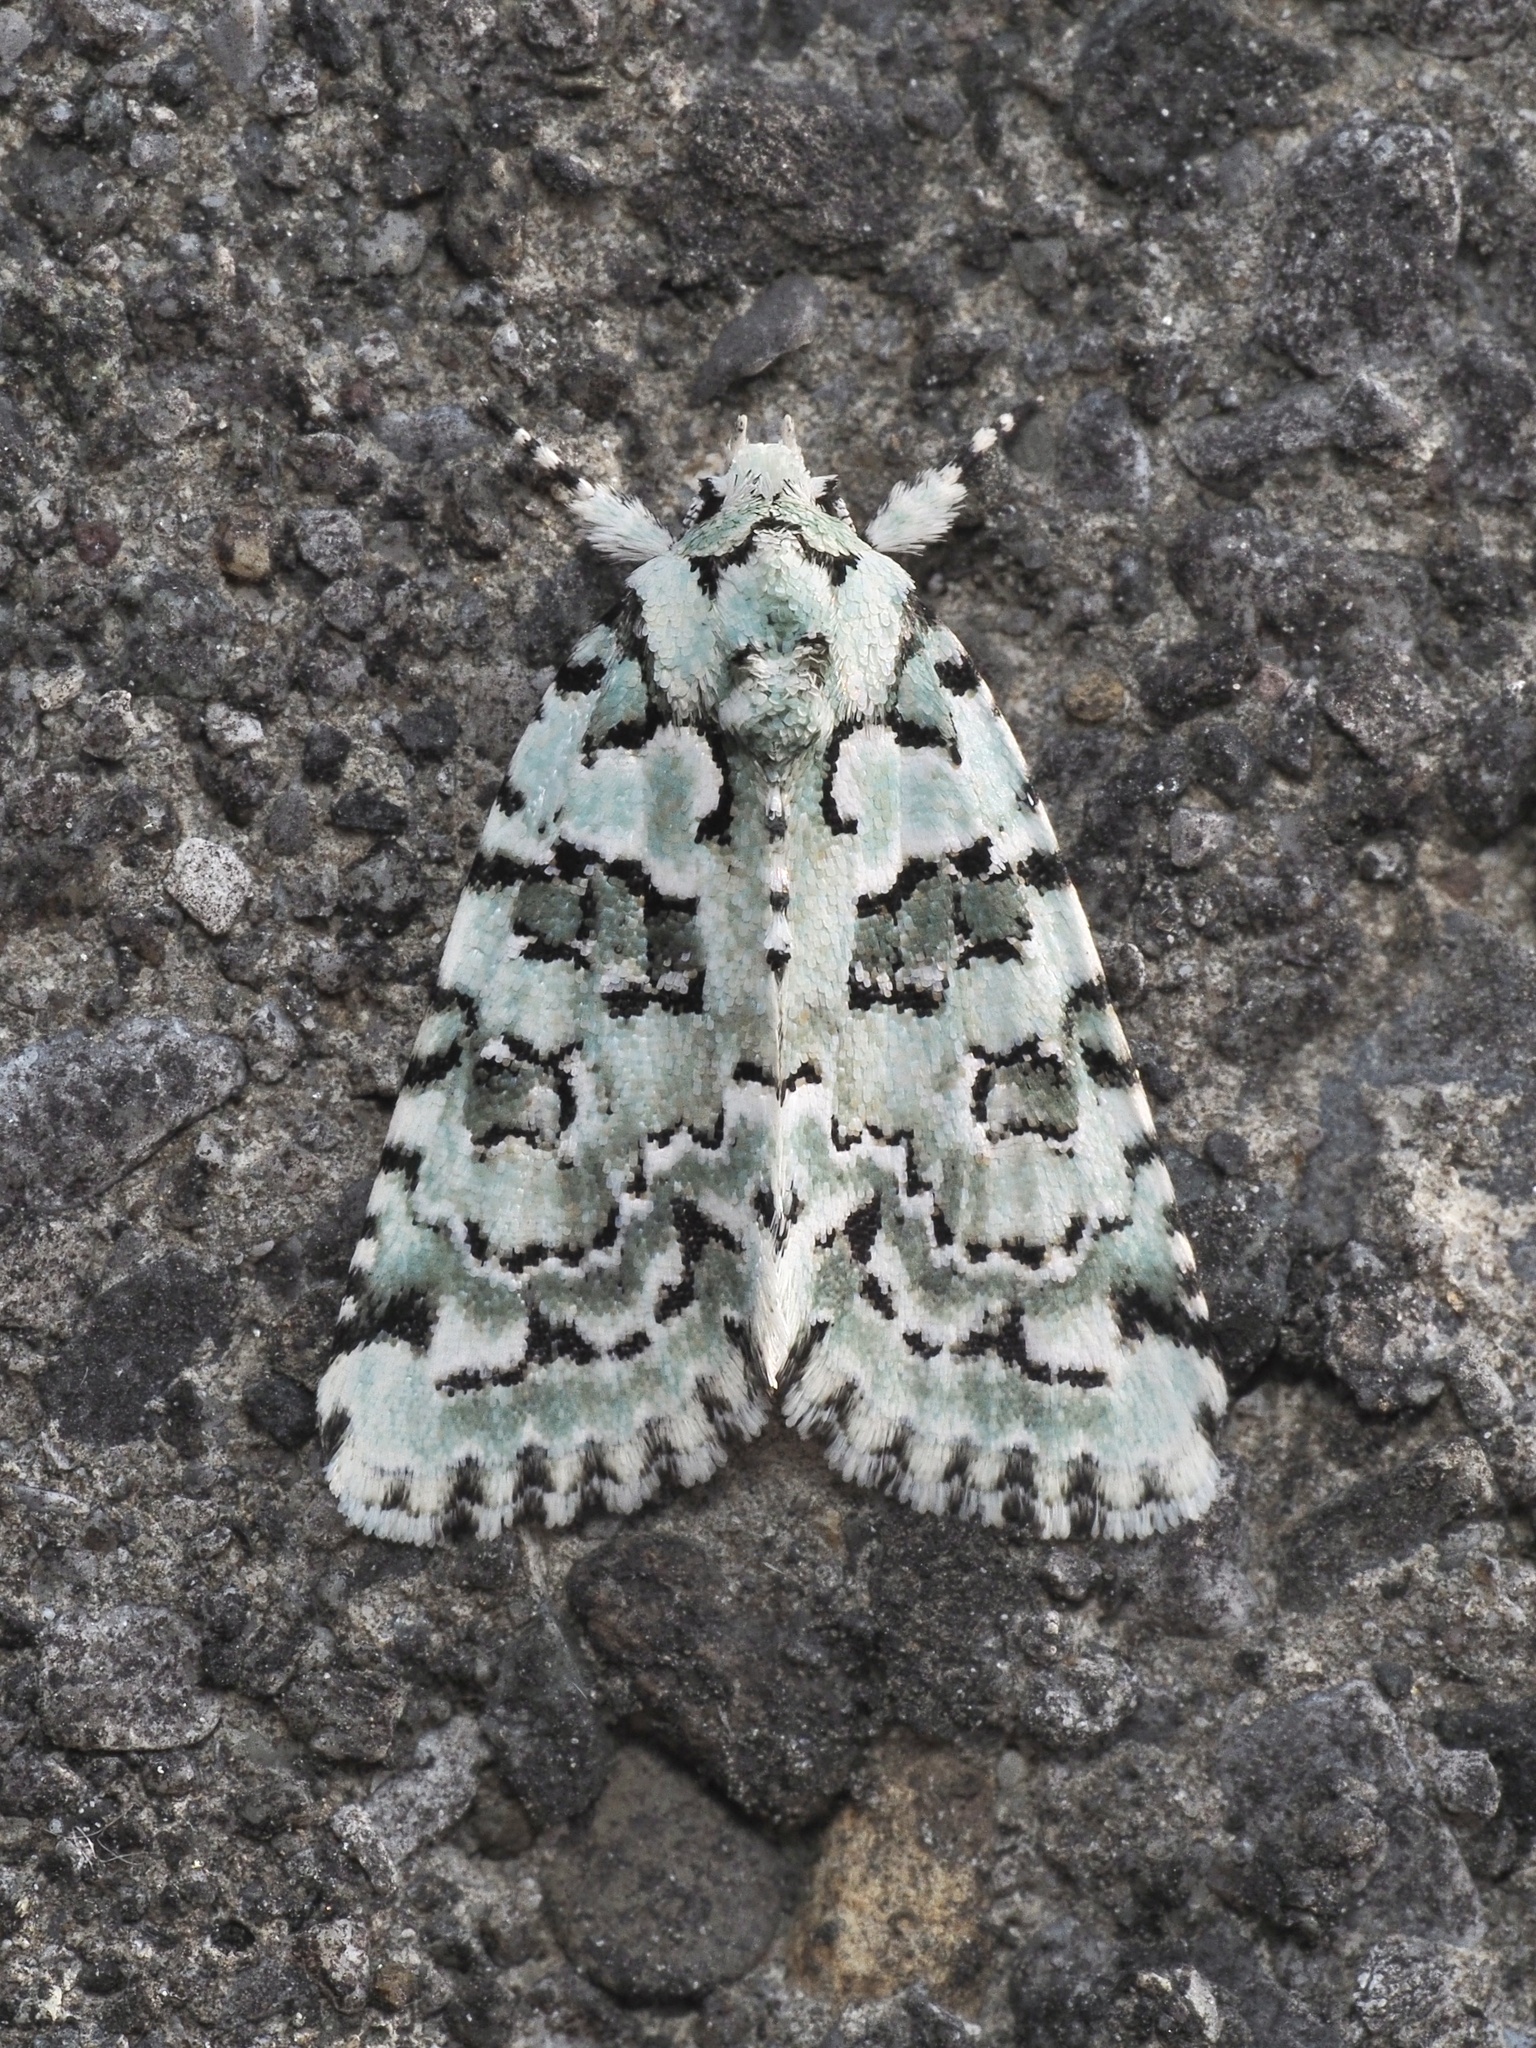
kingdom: Animalia
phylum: Arthropoda
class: Insecta
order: Lepidoptera
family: Noctuidae
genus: Nyctobrya
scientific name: Nyctobrya muralis
